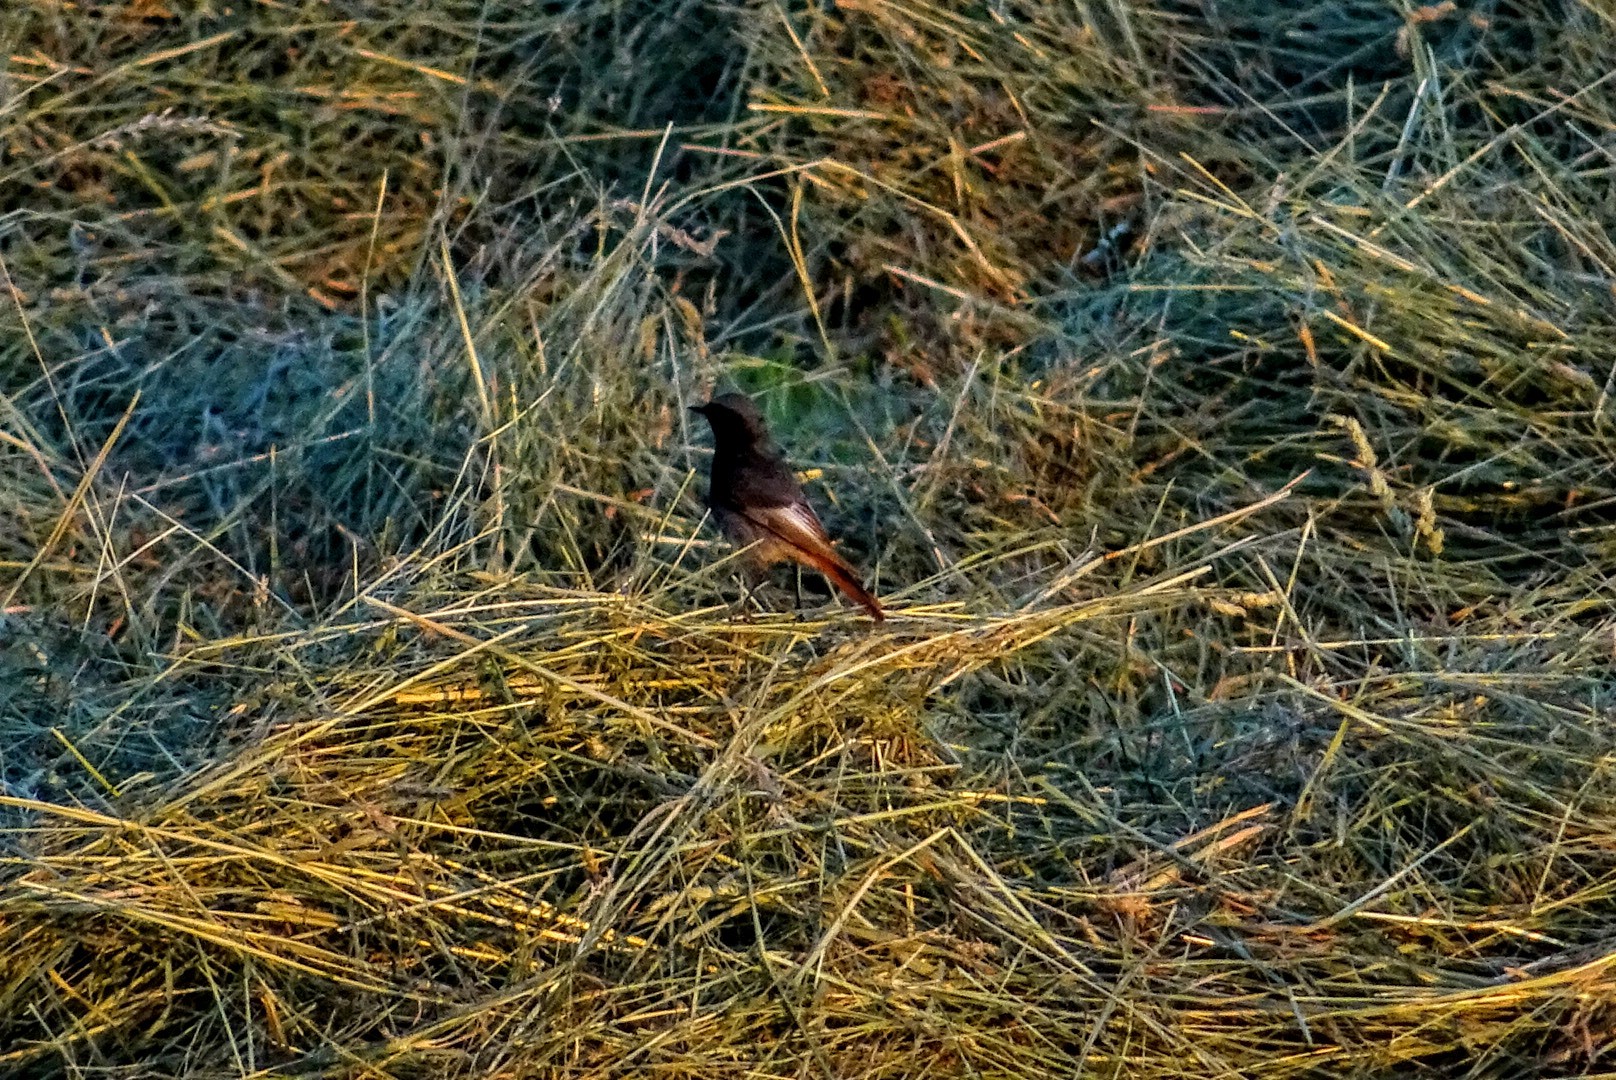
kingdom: Animalia
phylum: Chordata
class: Aves
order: Passeriformes
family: Muscicapidae
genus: Phoenicurus
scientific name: Phoenicurus ochruros
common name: Black redstart
